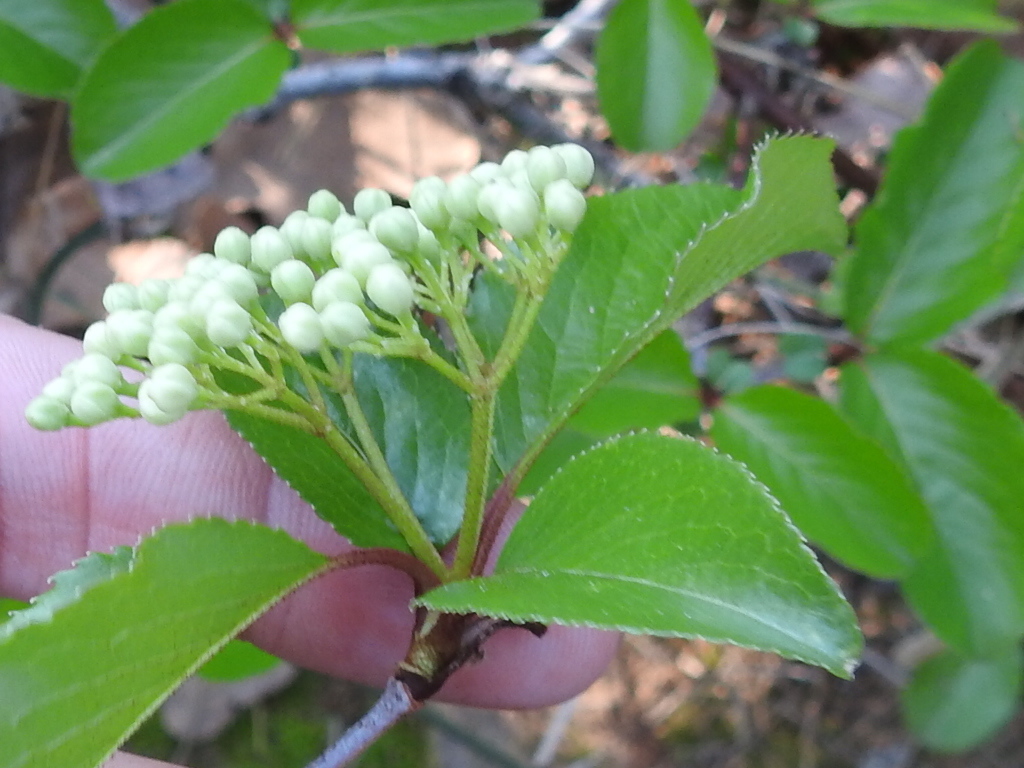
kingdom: Plantae
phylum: Tracheophyta
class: Magnoliopsida
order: Dipsacales
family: Viburnaceae
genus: Viburnum
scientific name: Viburnum rufidulum
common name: Blue haw
